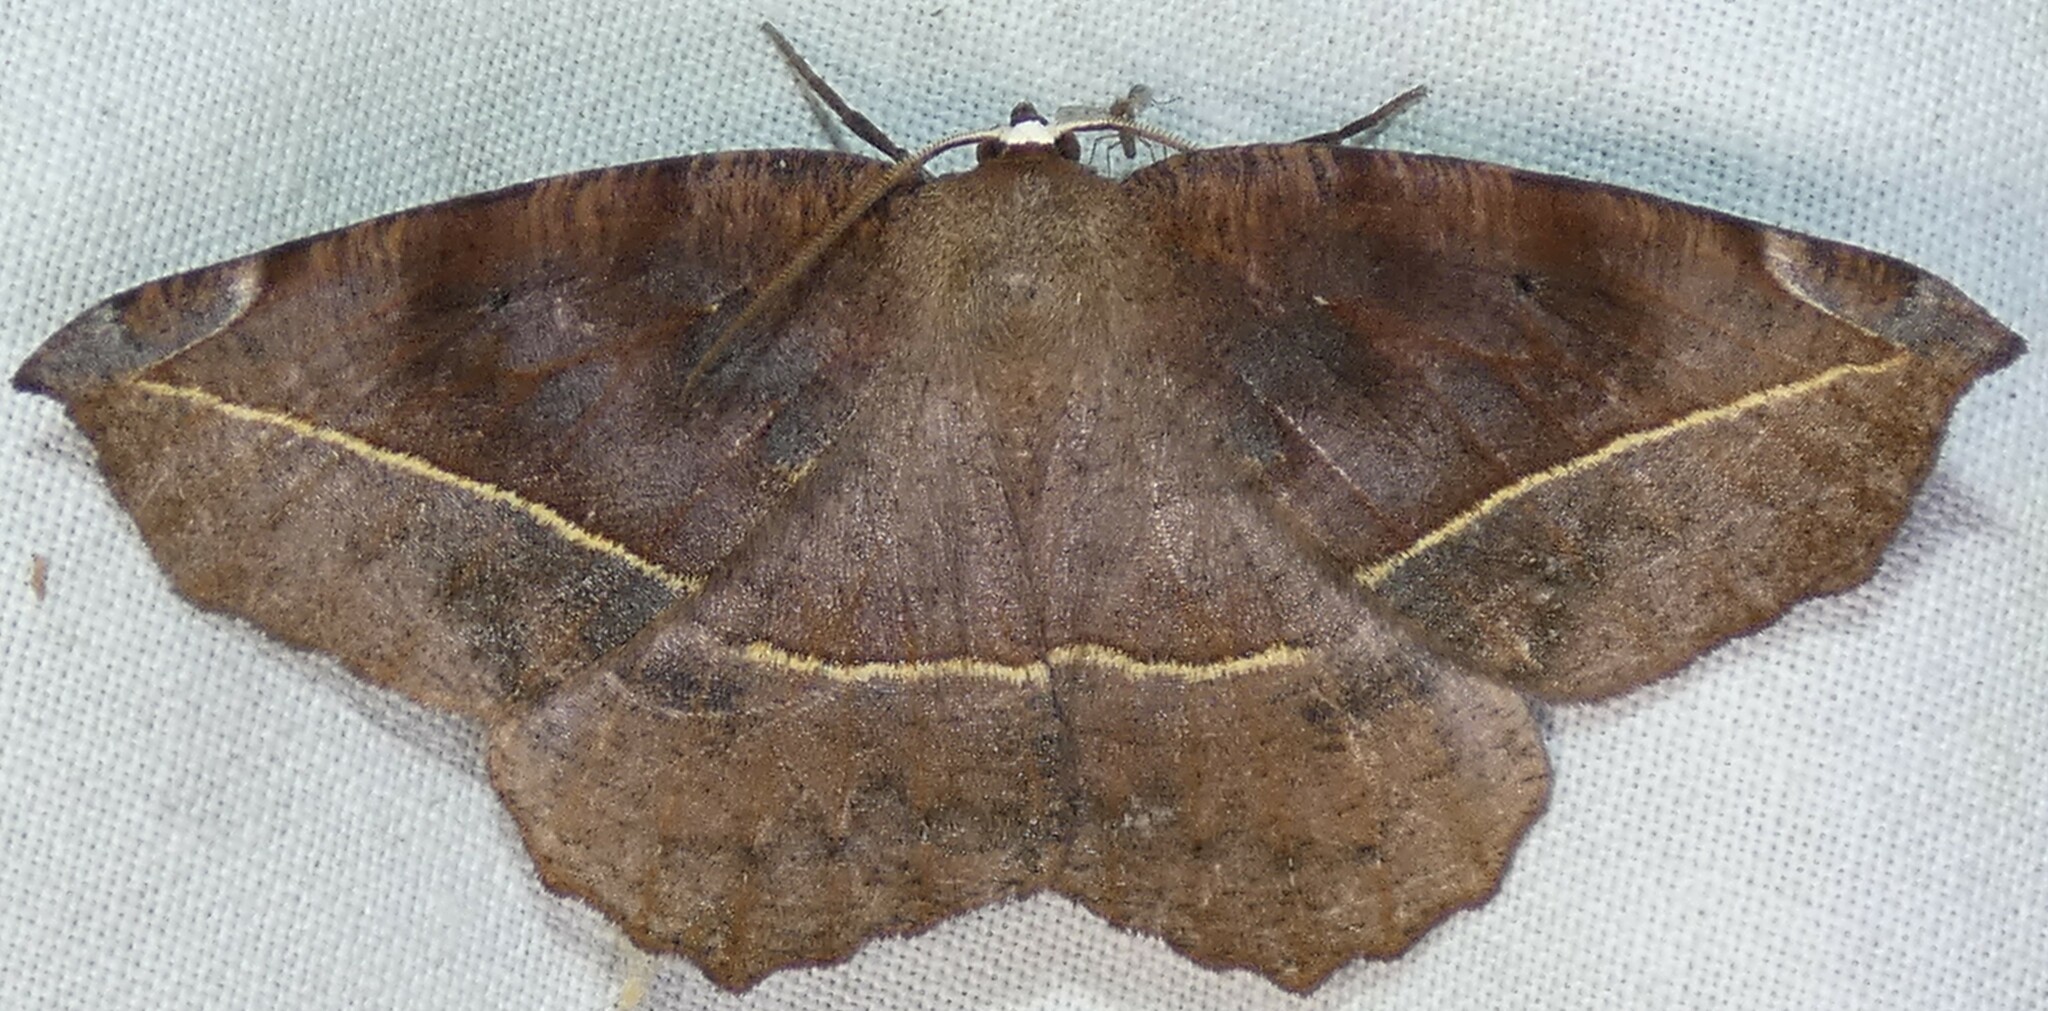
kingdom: Animalia
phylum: Arthropoda
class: Insecta
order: Lepidoptera
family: Geometridae
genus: Eutrapela
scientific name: Eutrapela clemataria
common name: Curved-toothed geometer
